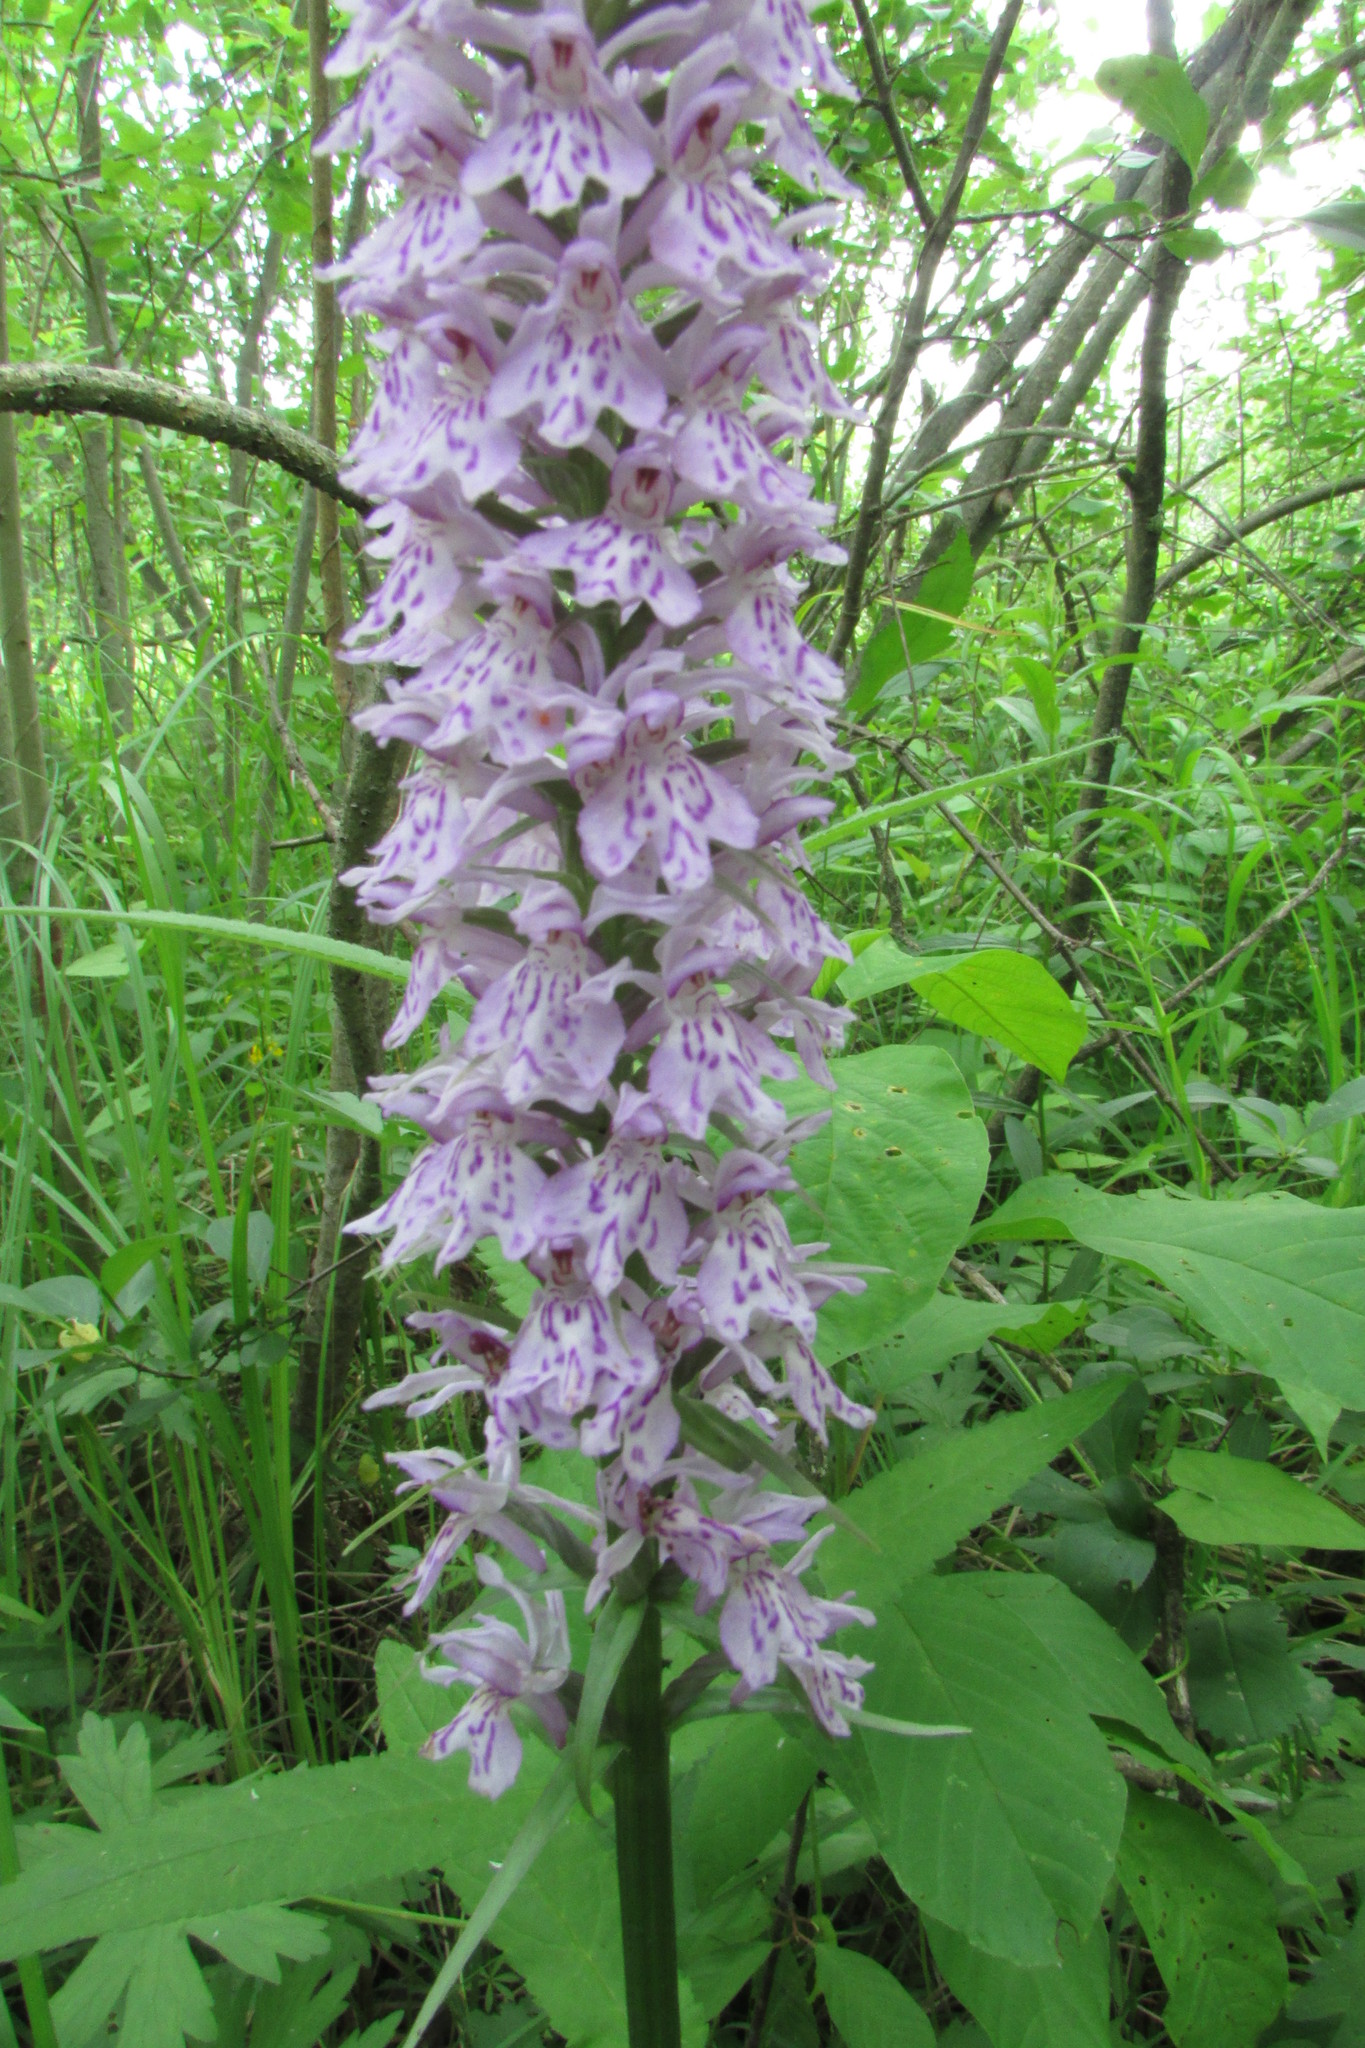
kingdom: Plantae
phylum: Tracheophyta
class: Liliopsida
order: Asparagales
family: Orchidaceae
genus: Dactylorhiza
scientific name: Dactylorhiza maculata
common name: Heath spotted-orchid
